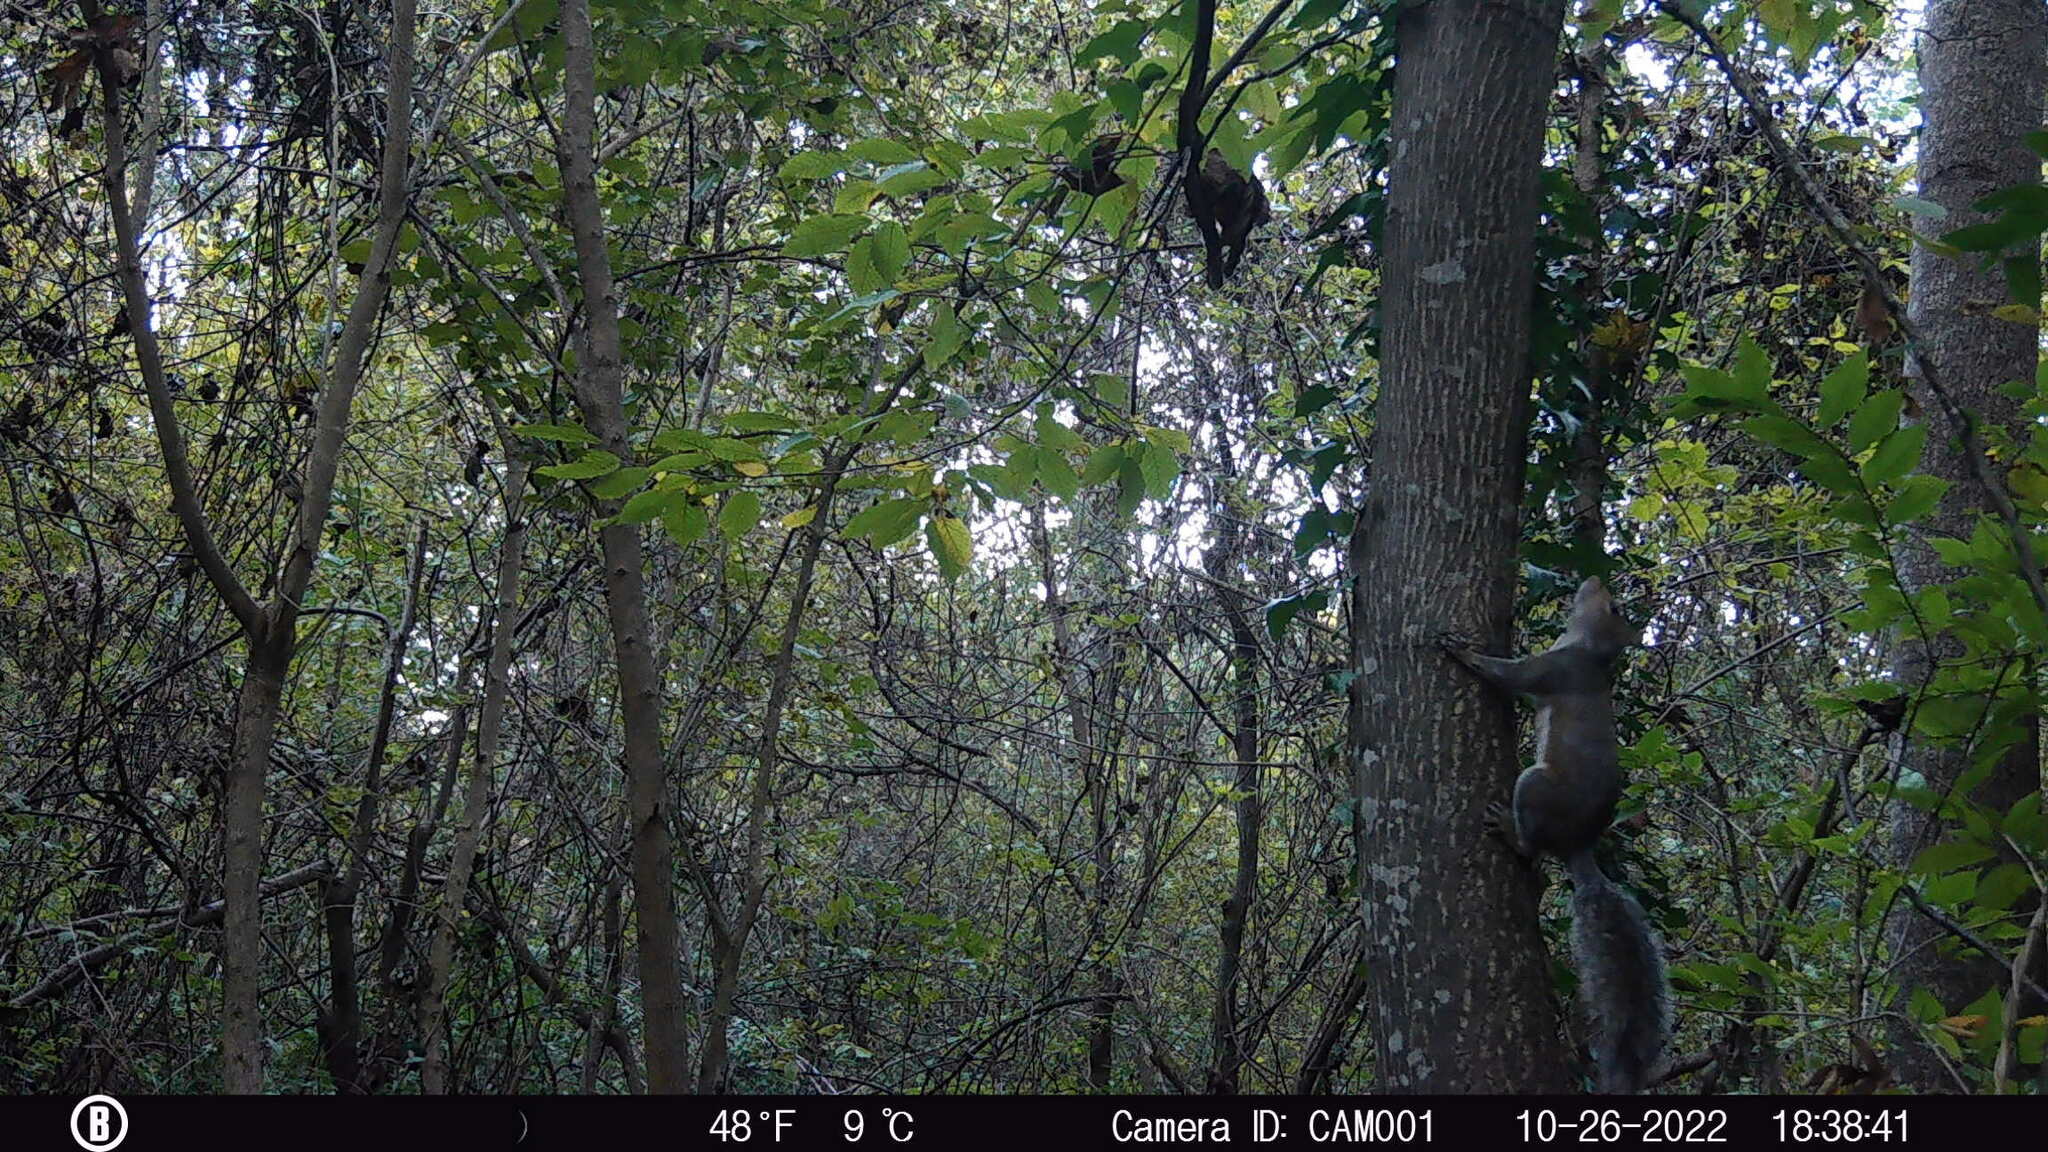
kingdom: Animalia
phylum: Chordata
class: Mammalia
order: Rodentia
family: Sciuridae
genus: Sciurus
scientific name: Sciurus carolinensis
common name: Eastern gray squirrel
